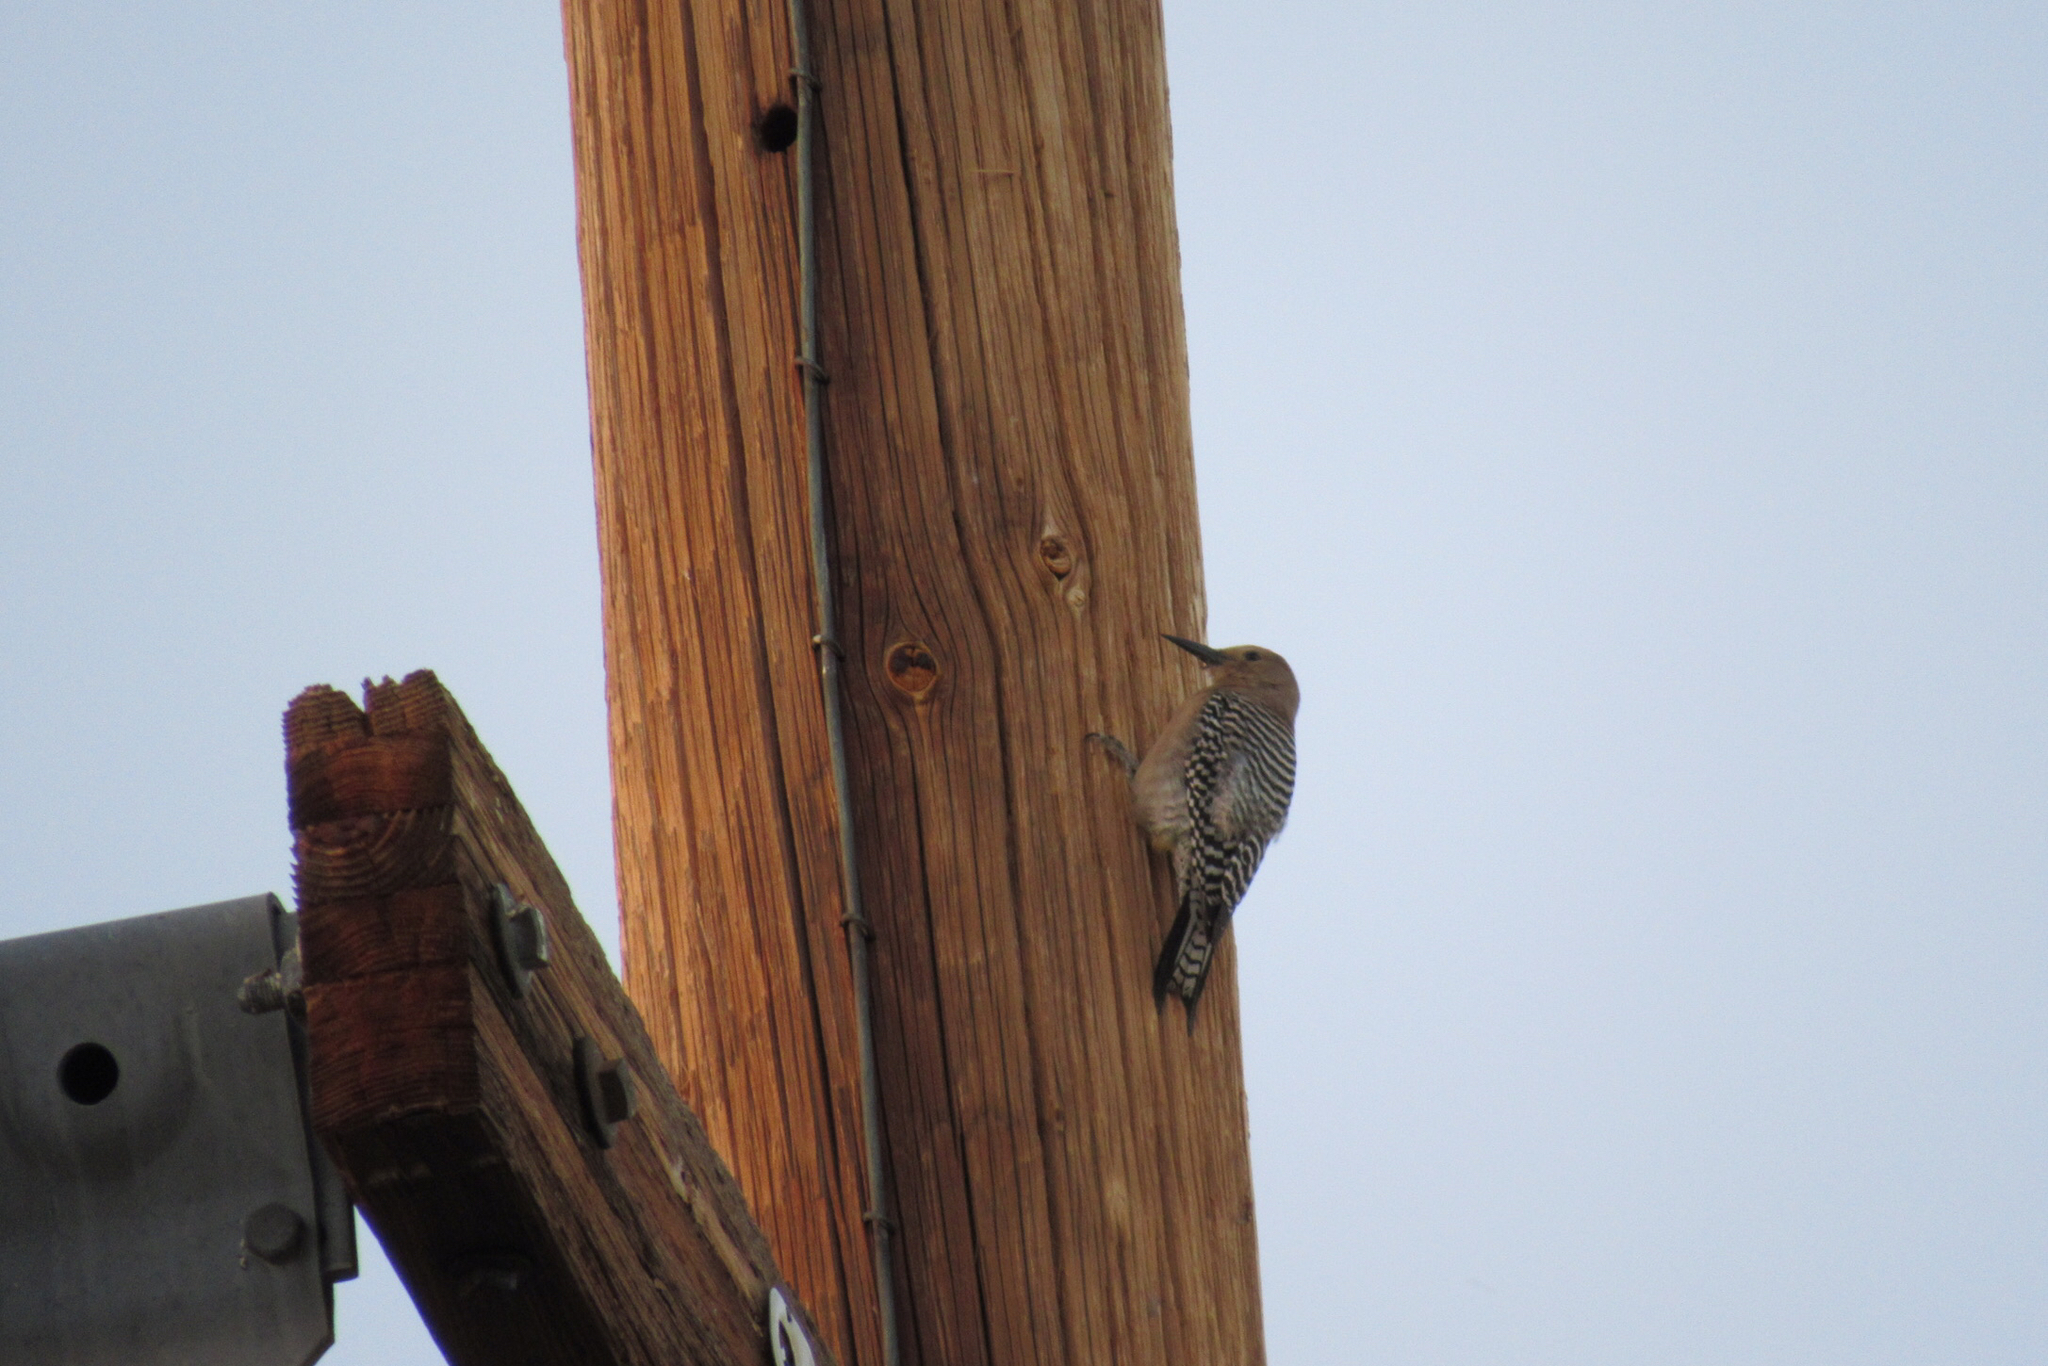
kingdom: Animalia
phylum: Chordata
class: Aves
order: Piciformes
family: Picidae
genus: Melanerpes
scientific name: Melanerpes uropygialis
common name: Gila woodpecker
